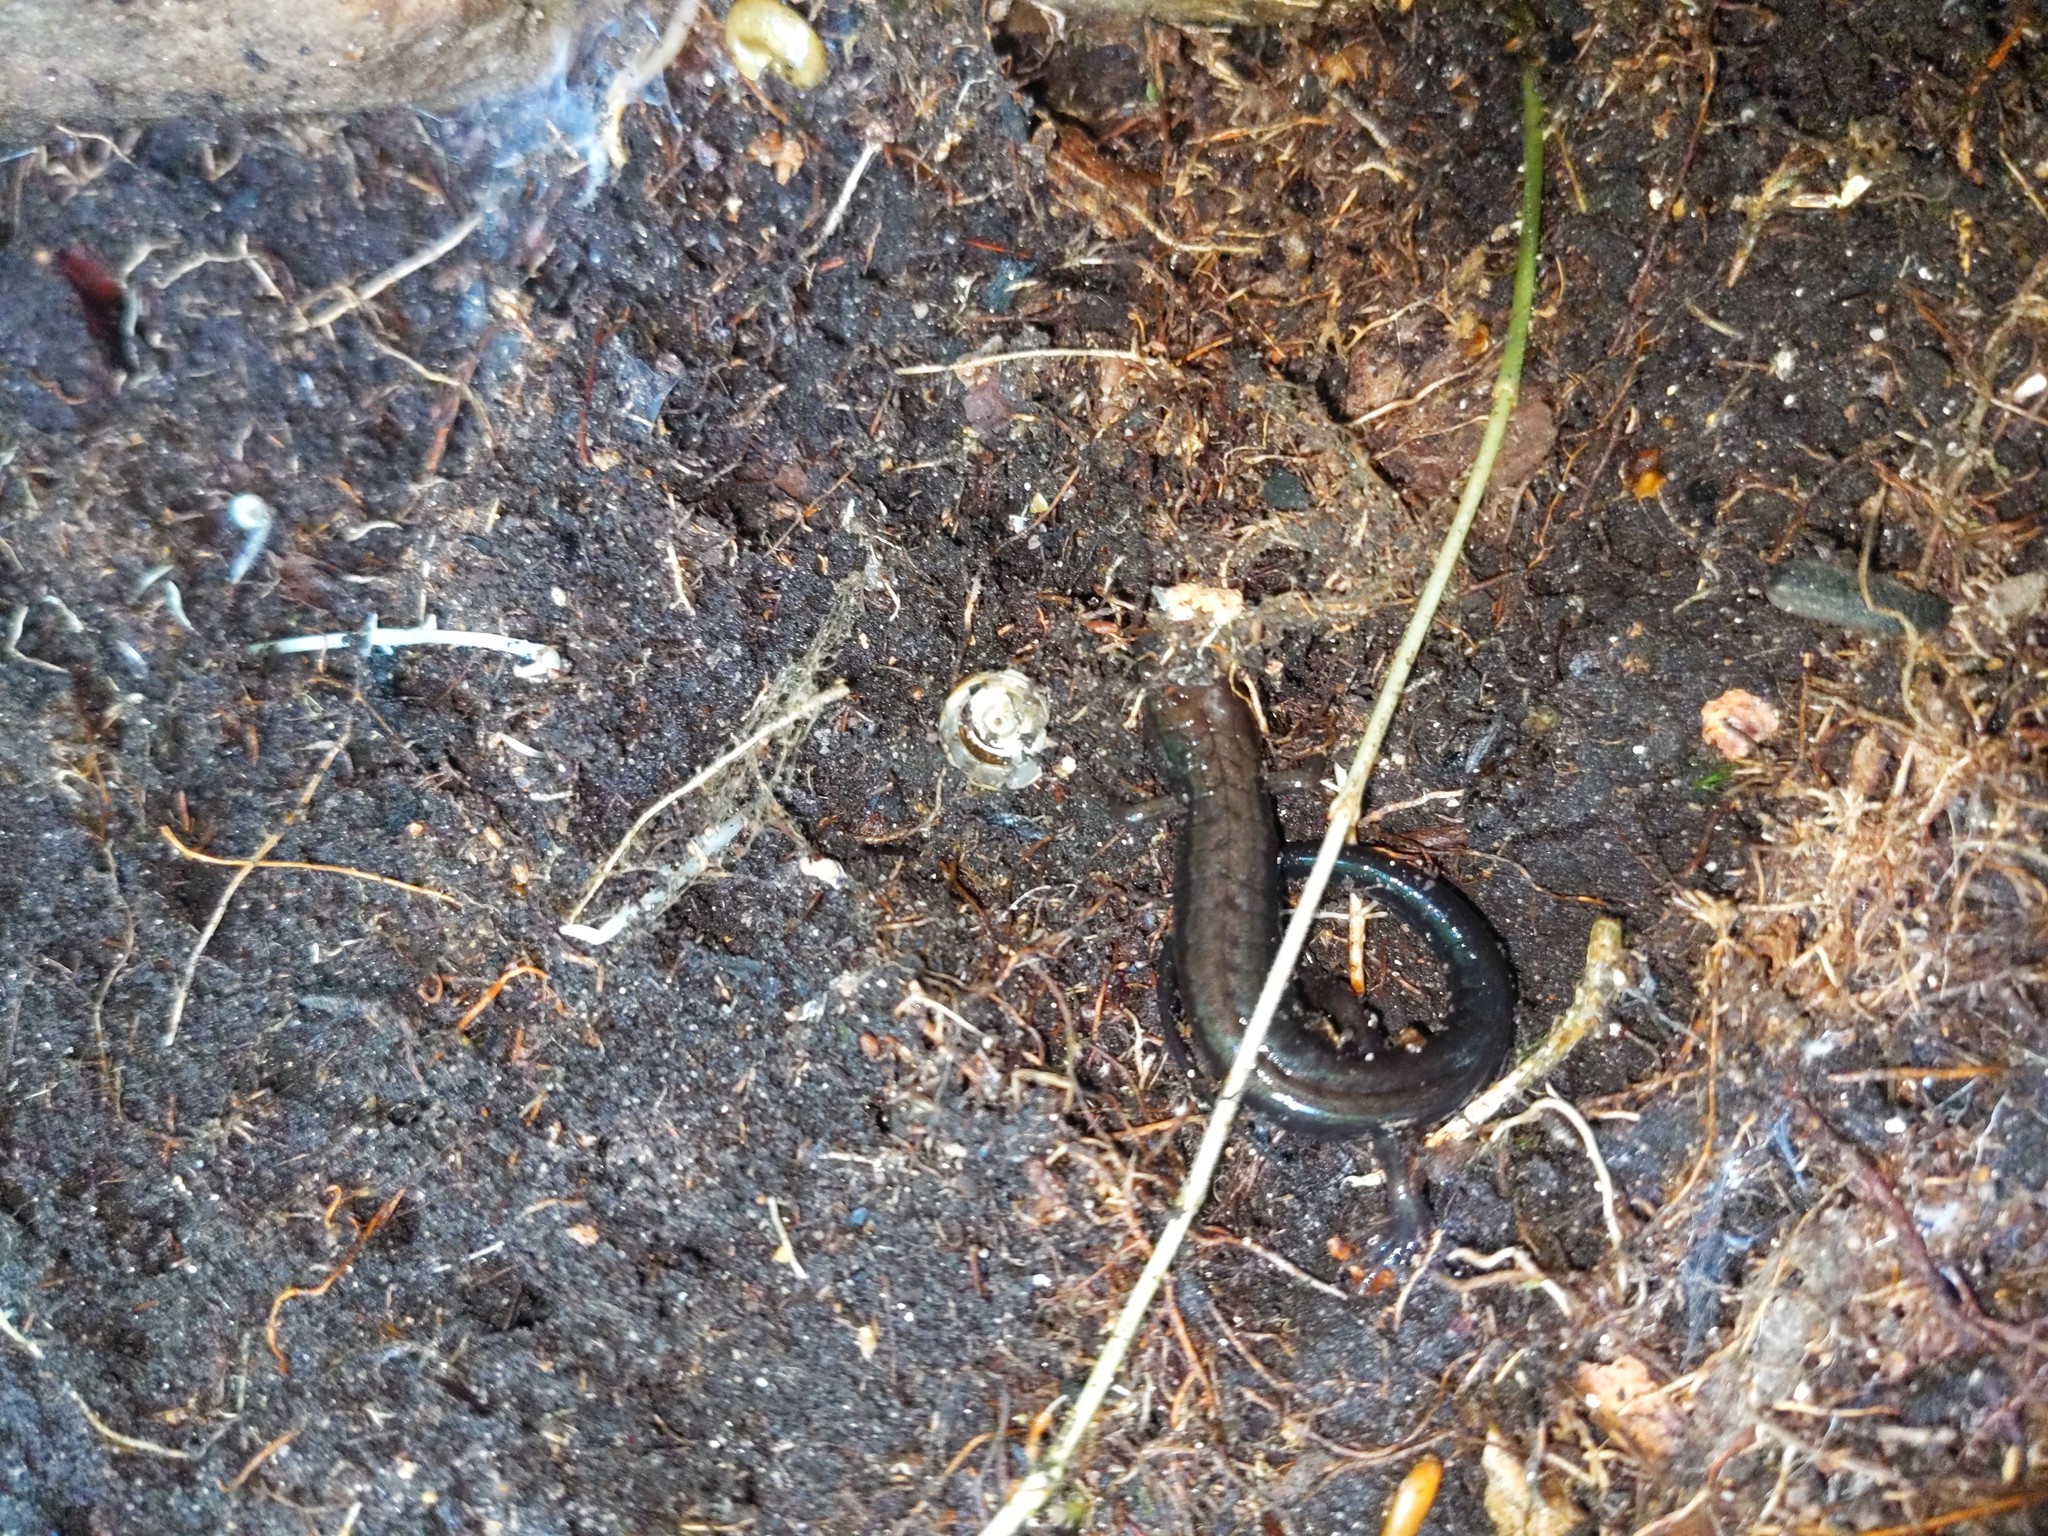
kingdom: Animalia
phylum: Chordata
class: Amphibia
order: Caudata
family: Plethodontidae
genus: Desmognathus
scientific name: Desmognathus ochrophaeus
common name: Allegheny mountain dusky salamander
